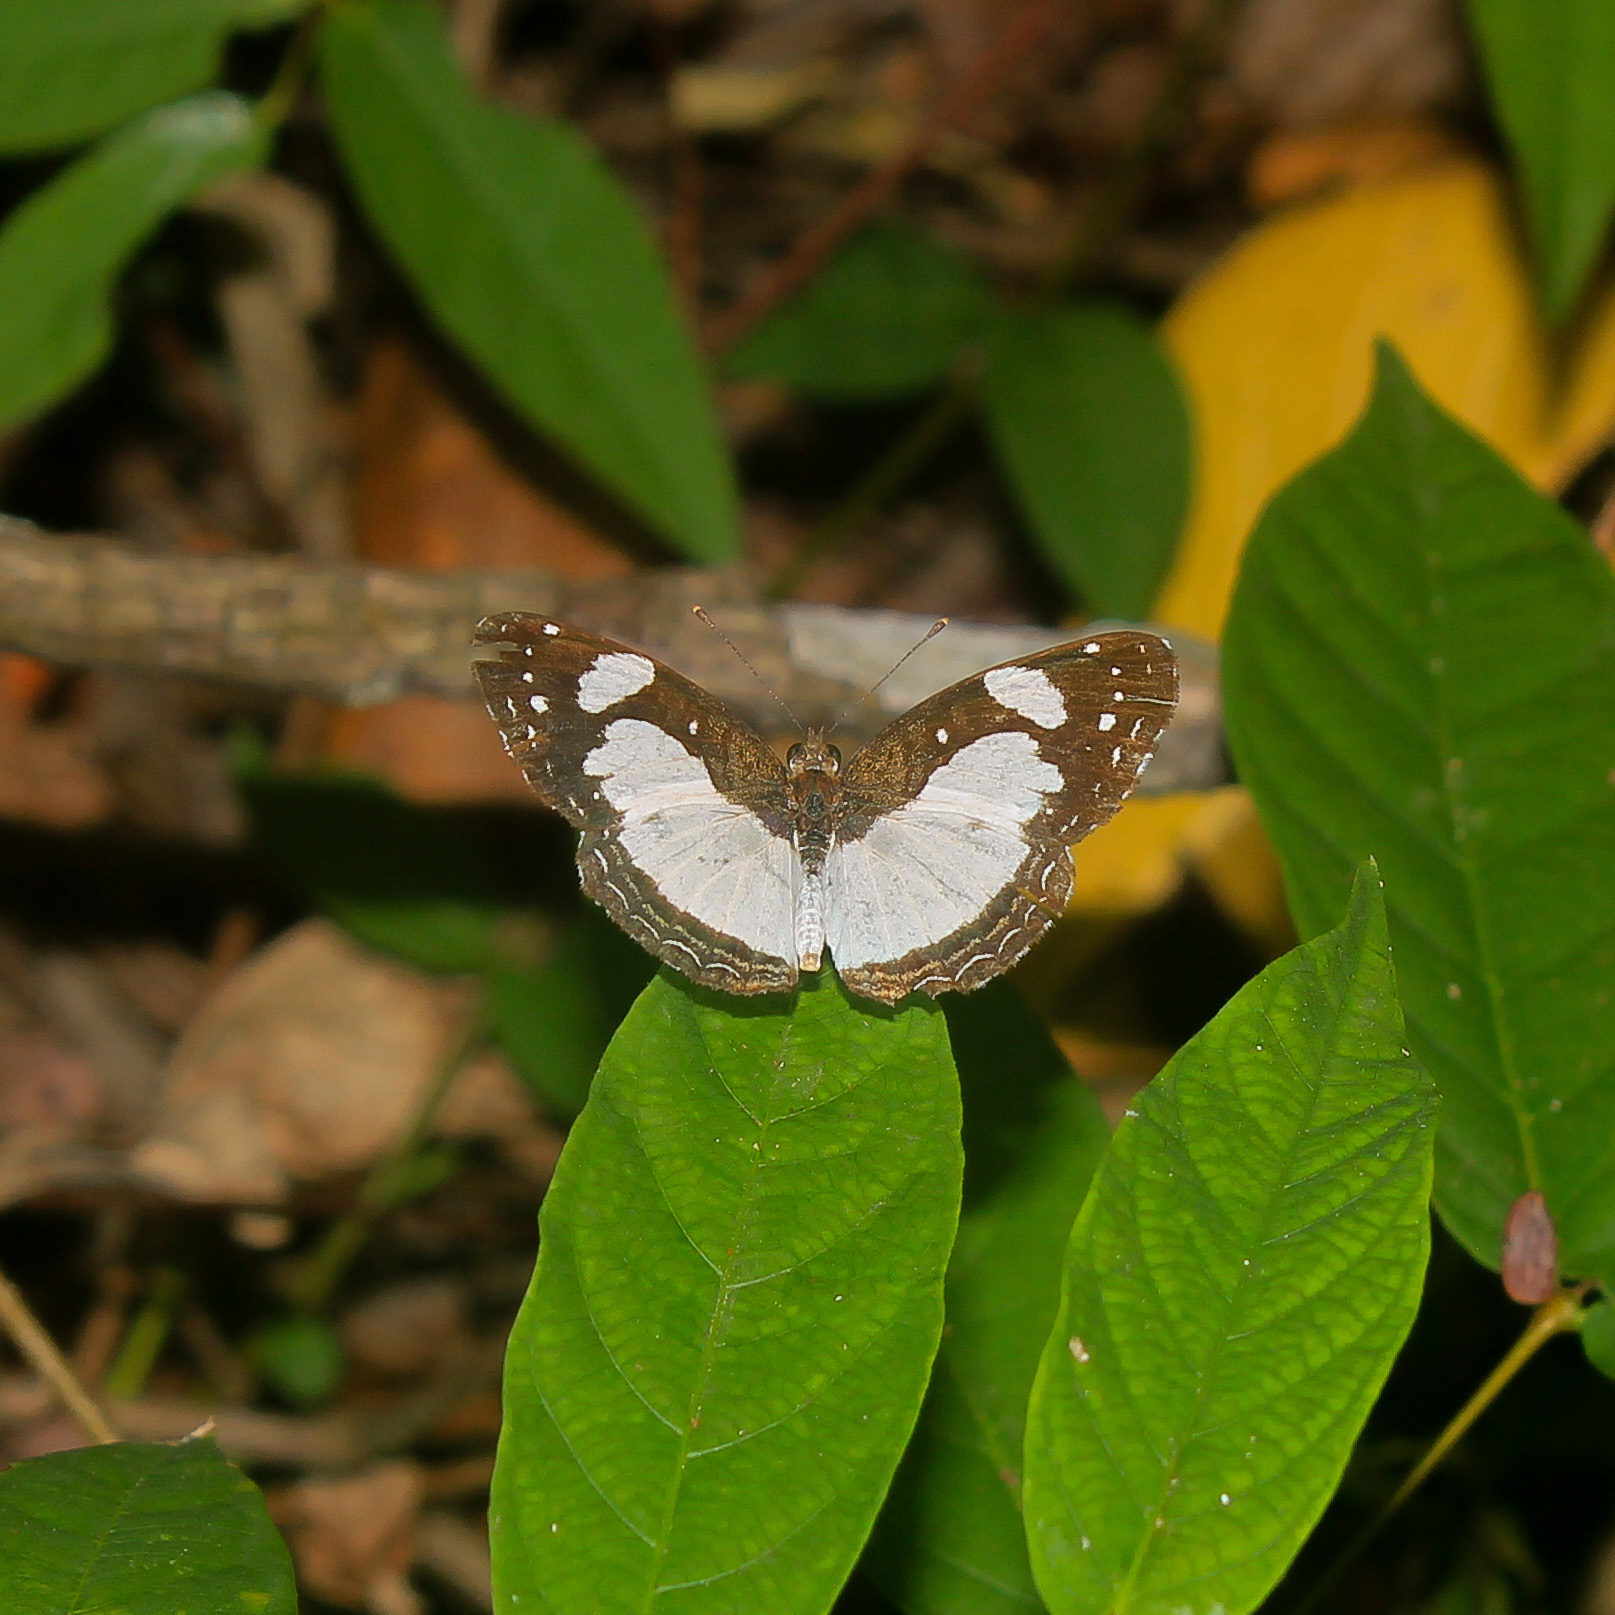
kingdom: Animalia
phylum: Arthropoda
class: Insecta
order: Lepidoptera
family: Nymphalidae
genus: Janatella
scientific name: Janatella leucodesma
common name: Whitened crescent
